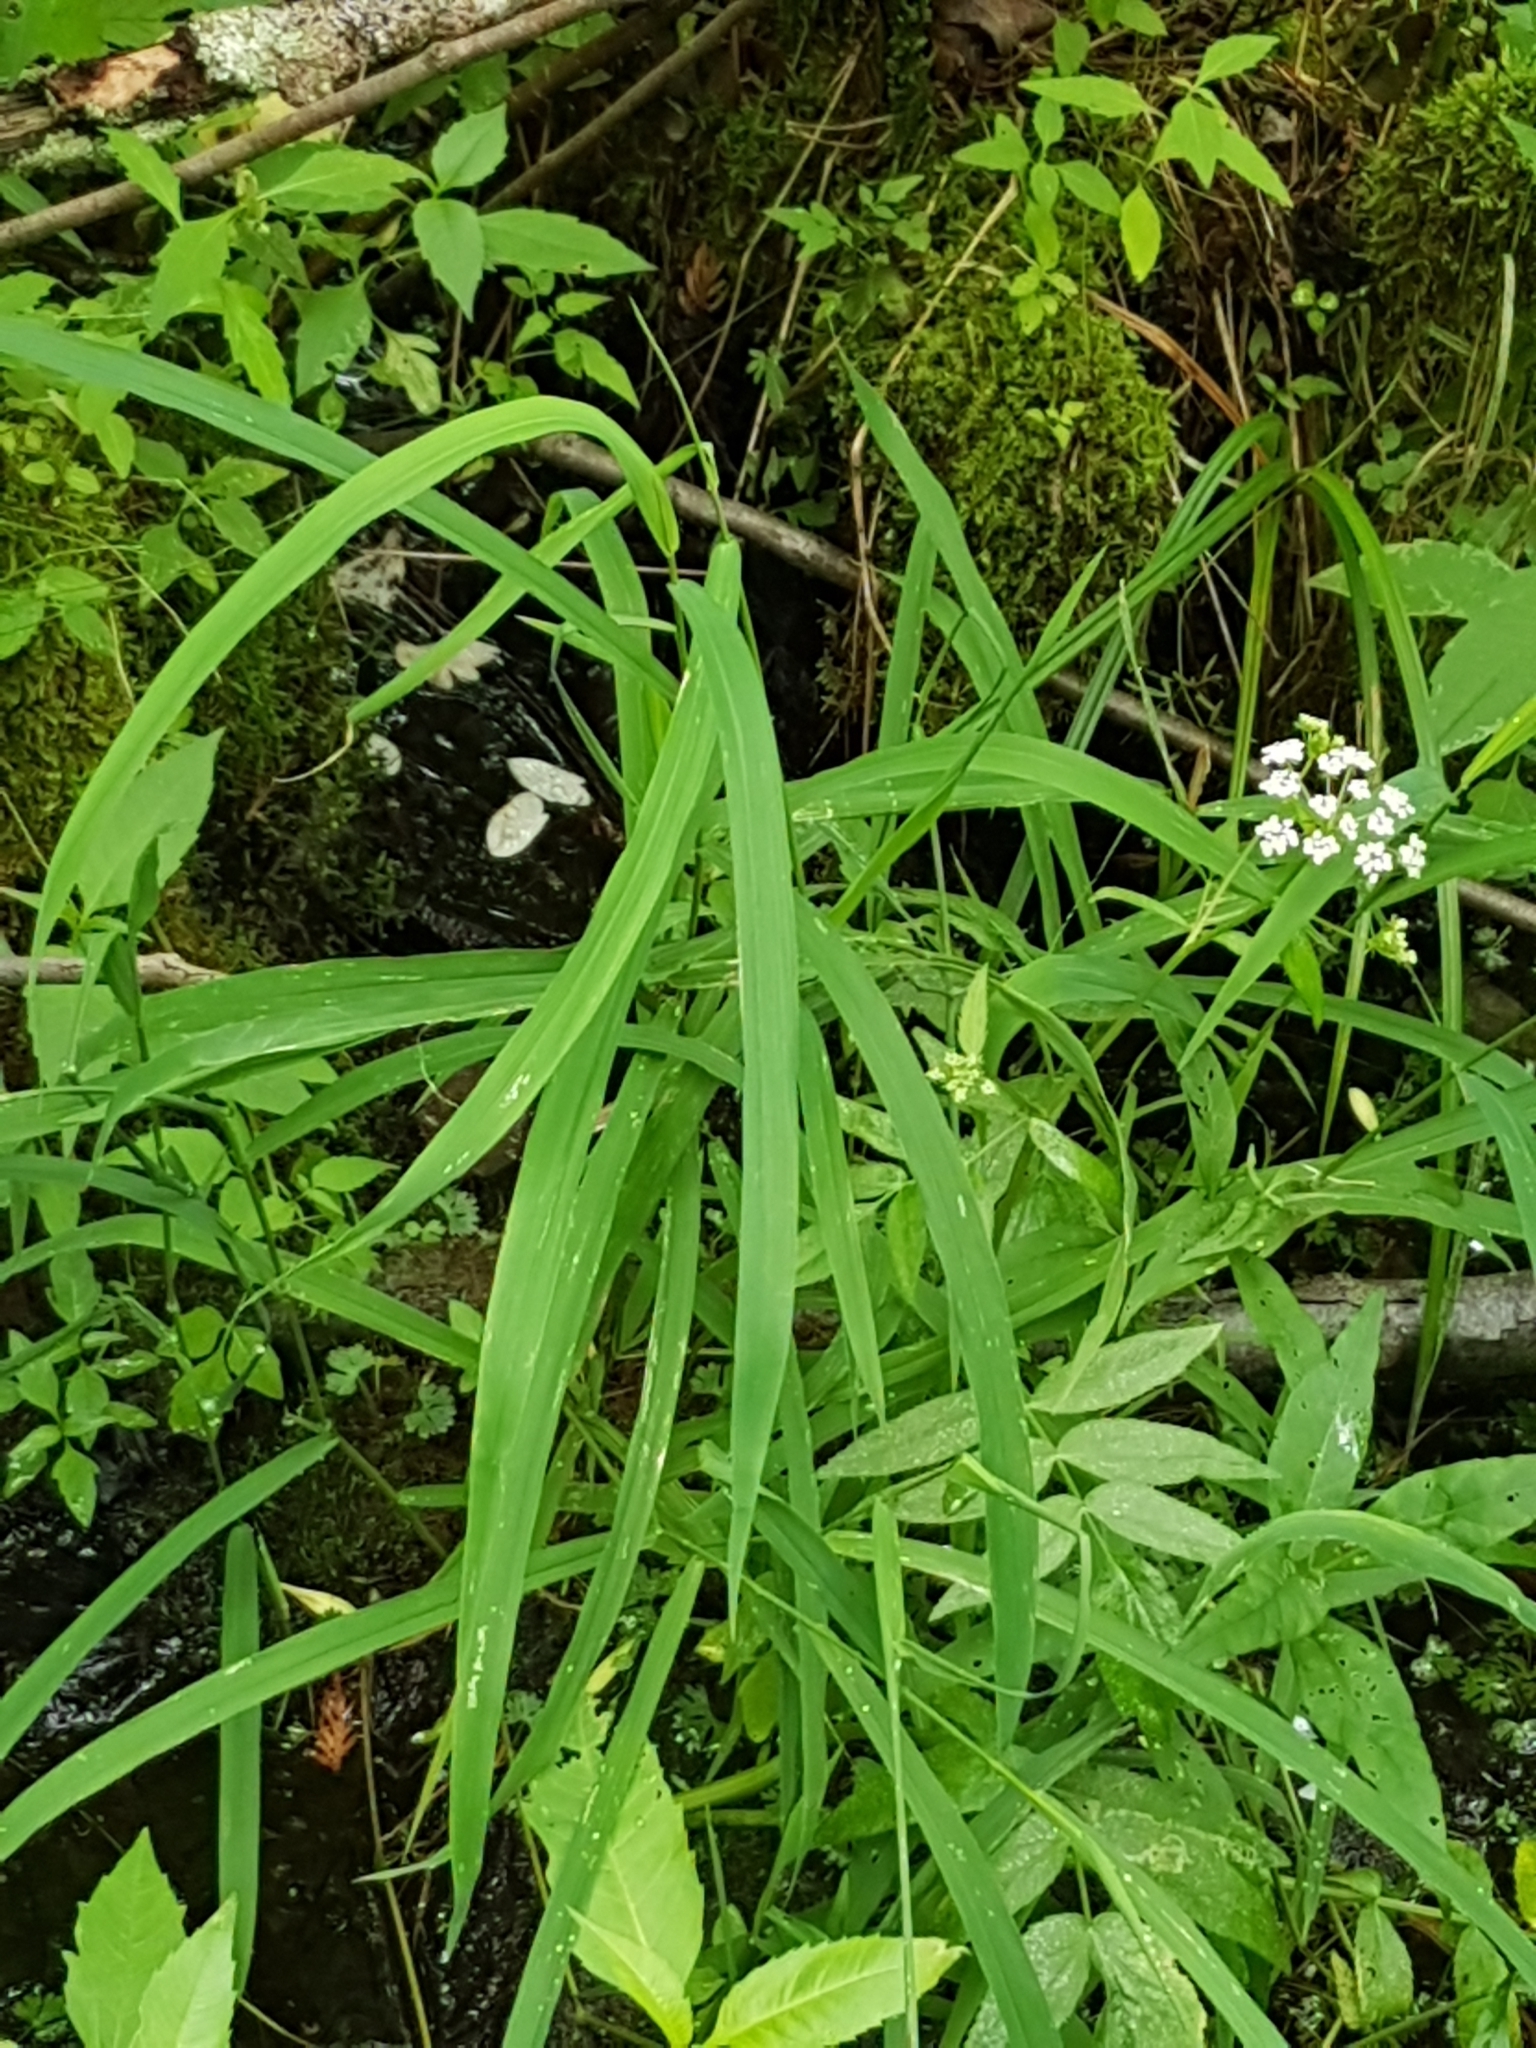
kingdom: Plantae
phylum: Tracheophyta
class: Liliopsida
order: Poales
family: Poaceae
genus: Leersia
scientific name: Leersia oryzoides
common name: Cut-grass
